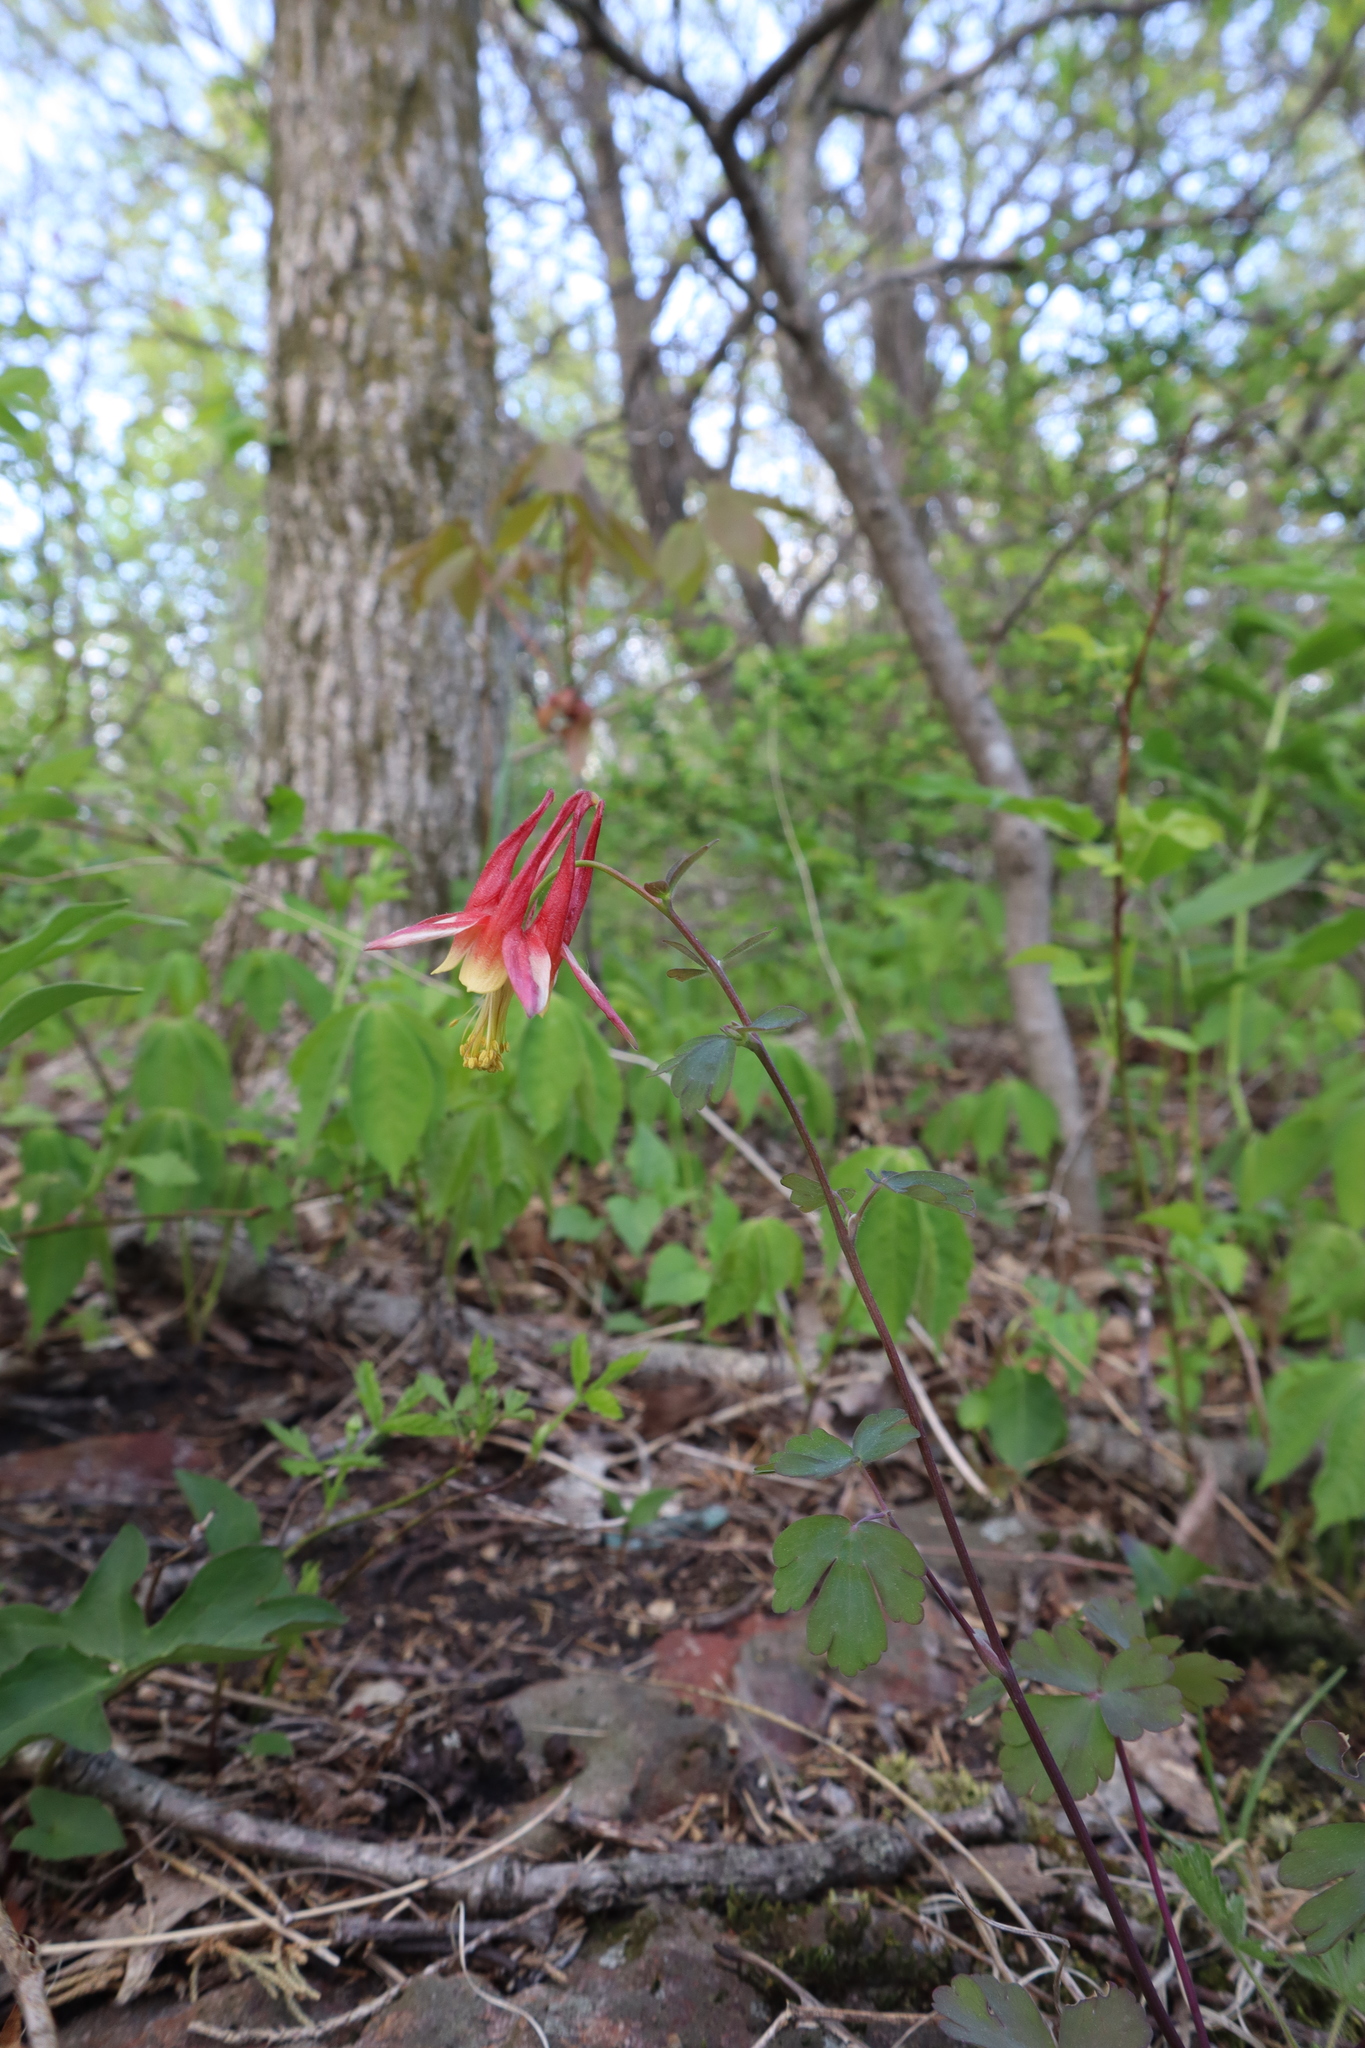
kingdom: Plantae
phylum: Tracheophyta
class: Magnoliopsida
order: Ranunculales
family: Ranunculaceae
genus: Aquilegia
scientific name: Aquilegia canadensis
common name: American columbine
